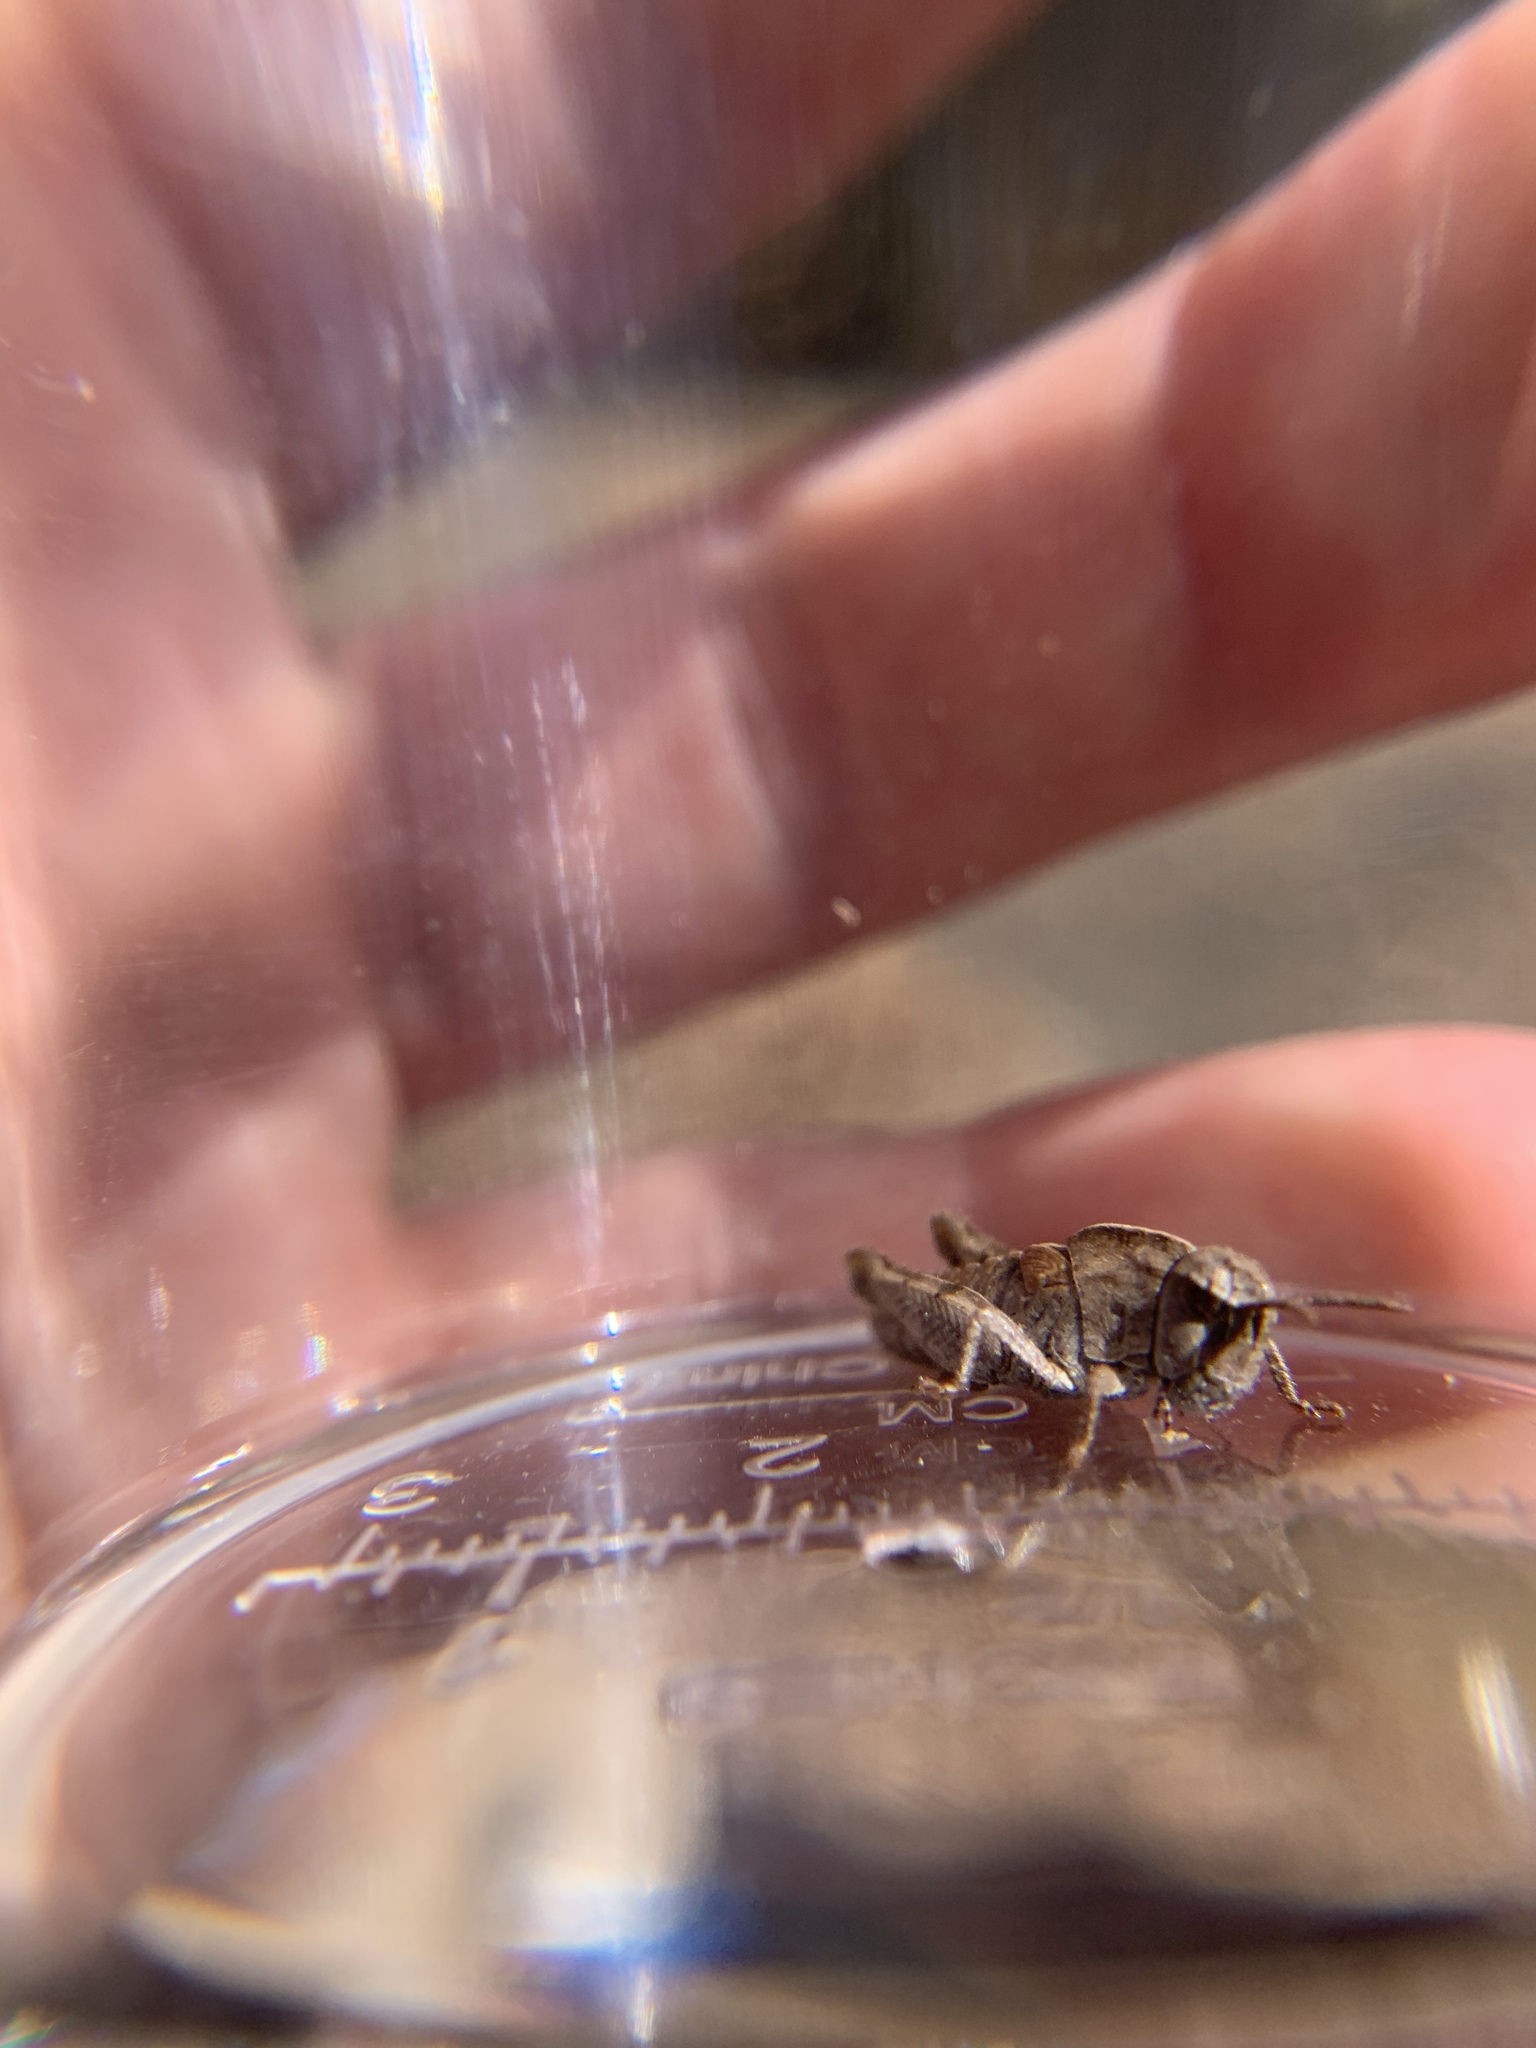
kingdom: Animalia
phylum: Arthropoda
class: Insecta
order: Orthoptera
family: Acrididae
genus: Chortophaga
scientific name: Chortophaga viridifasciata
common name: Green-striped grasshopper
